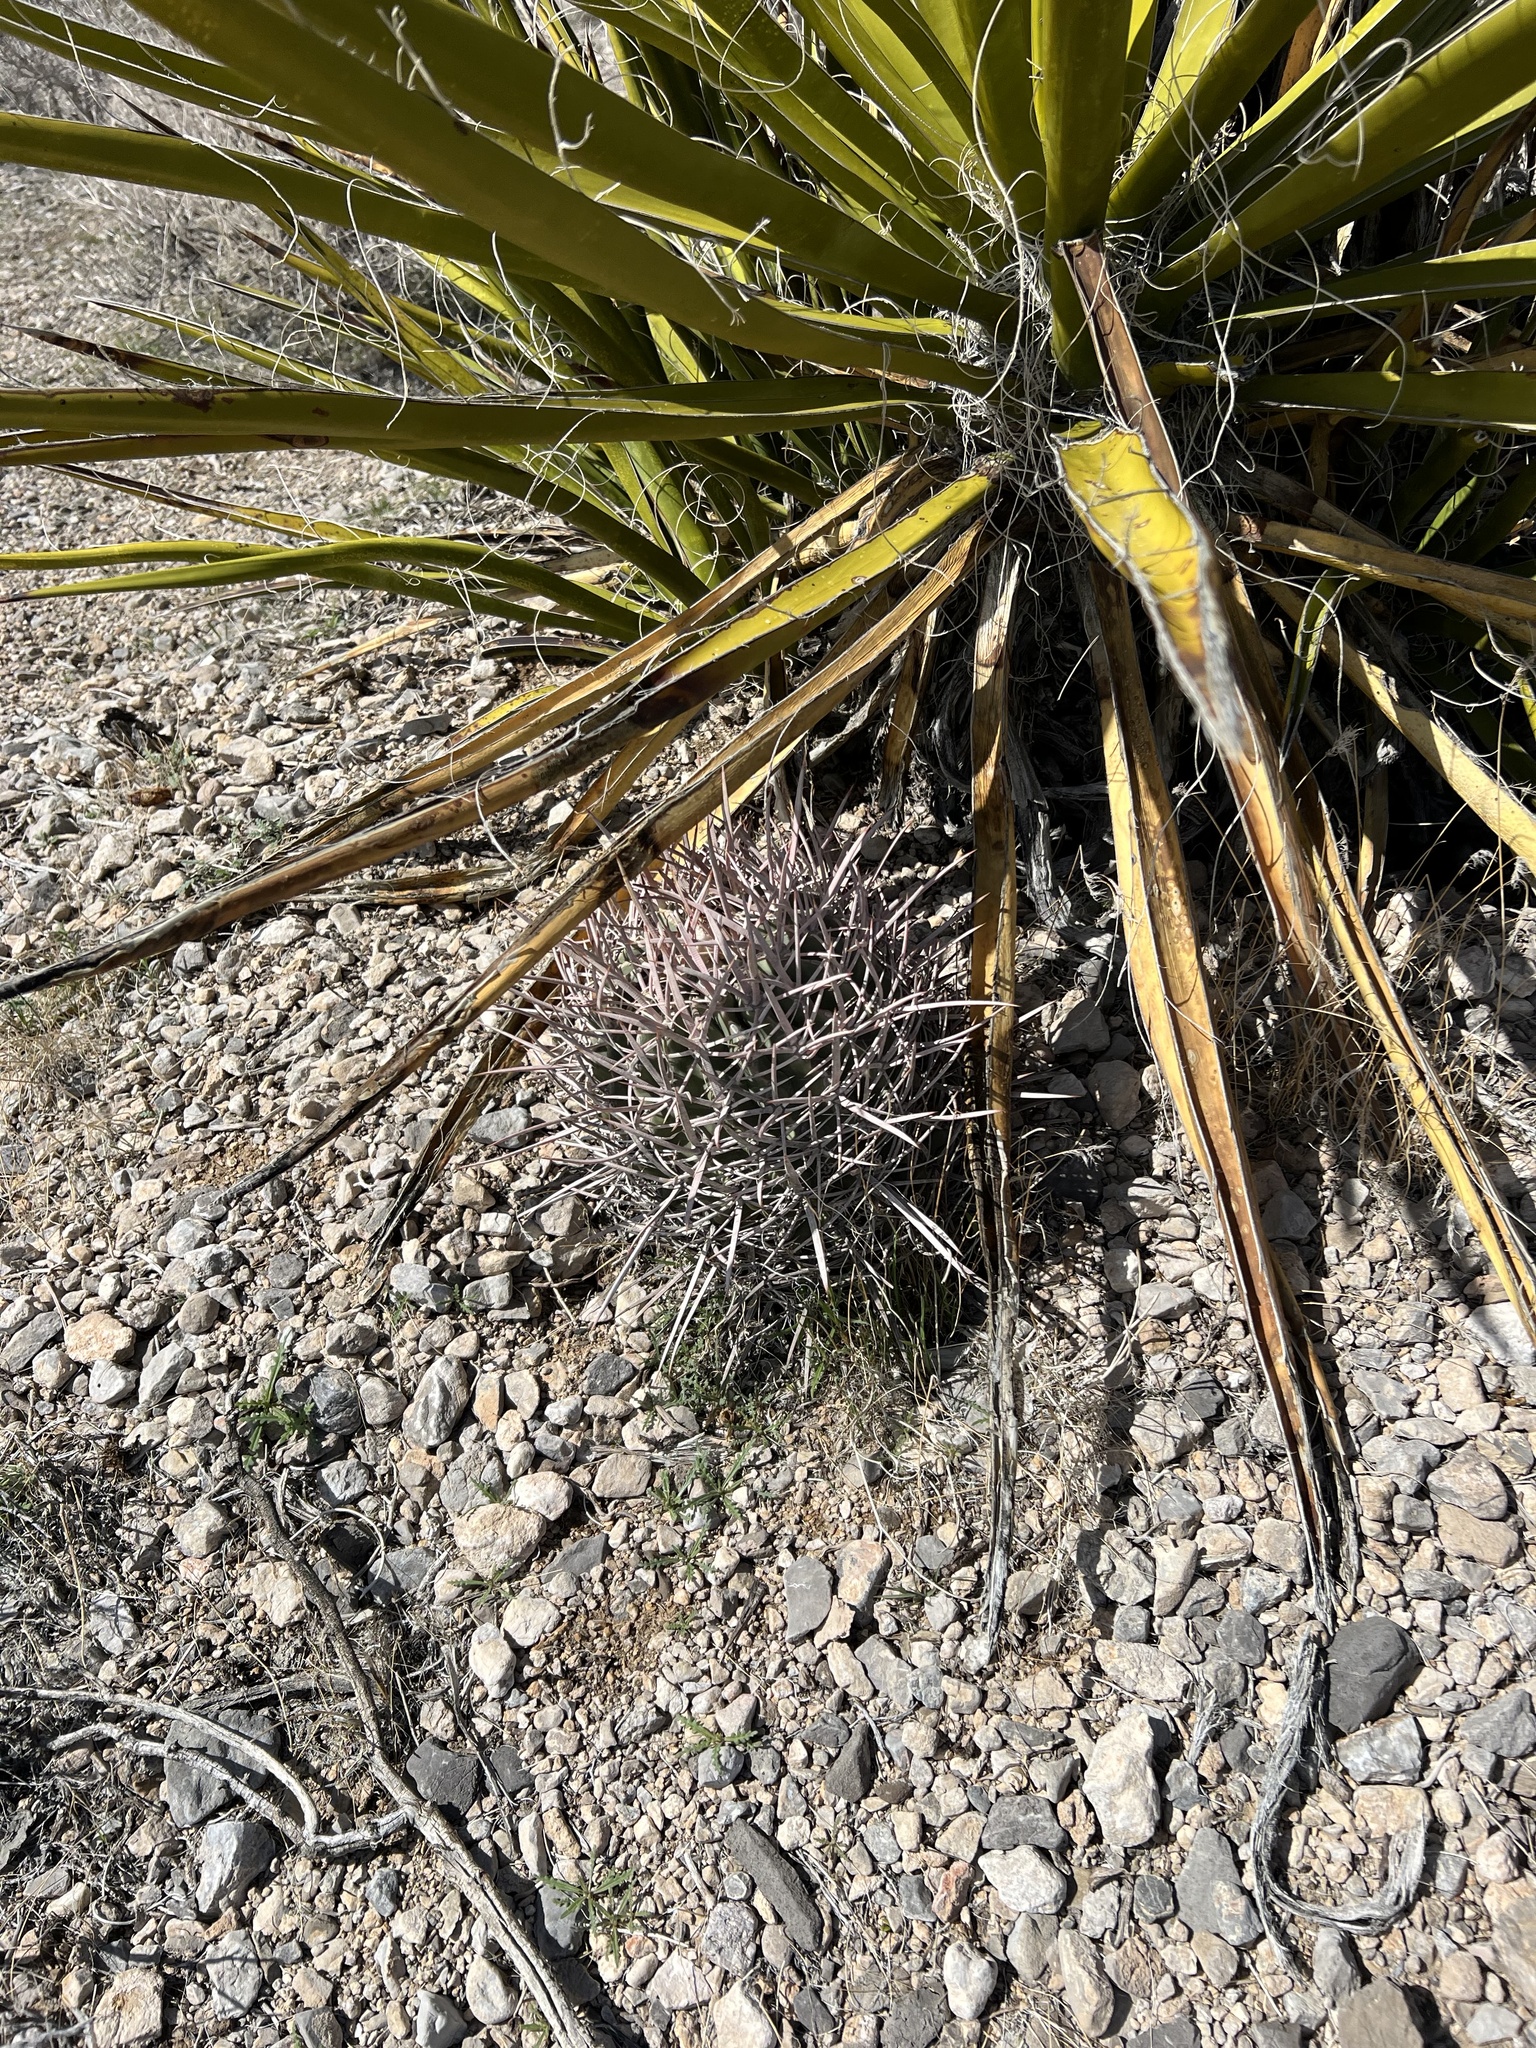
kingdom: Plantae
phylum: Tracheophyta
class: Magnoliopsida
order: Caryophyllales
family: Cactaceae
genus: Echinocactus
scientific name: Echinocactus polycephalus
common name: Cottontop cactus
